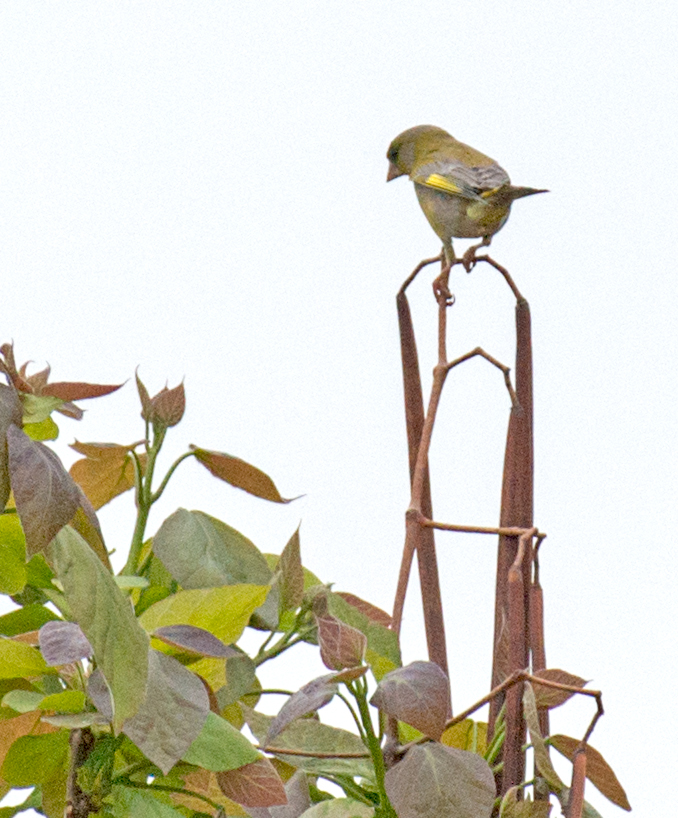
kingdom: Plantae
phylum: Tracheophyta
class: Liliopsida
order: Poales
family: Poaceae
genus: Chloris
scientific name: Chloris chloris
